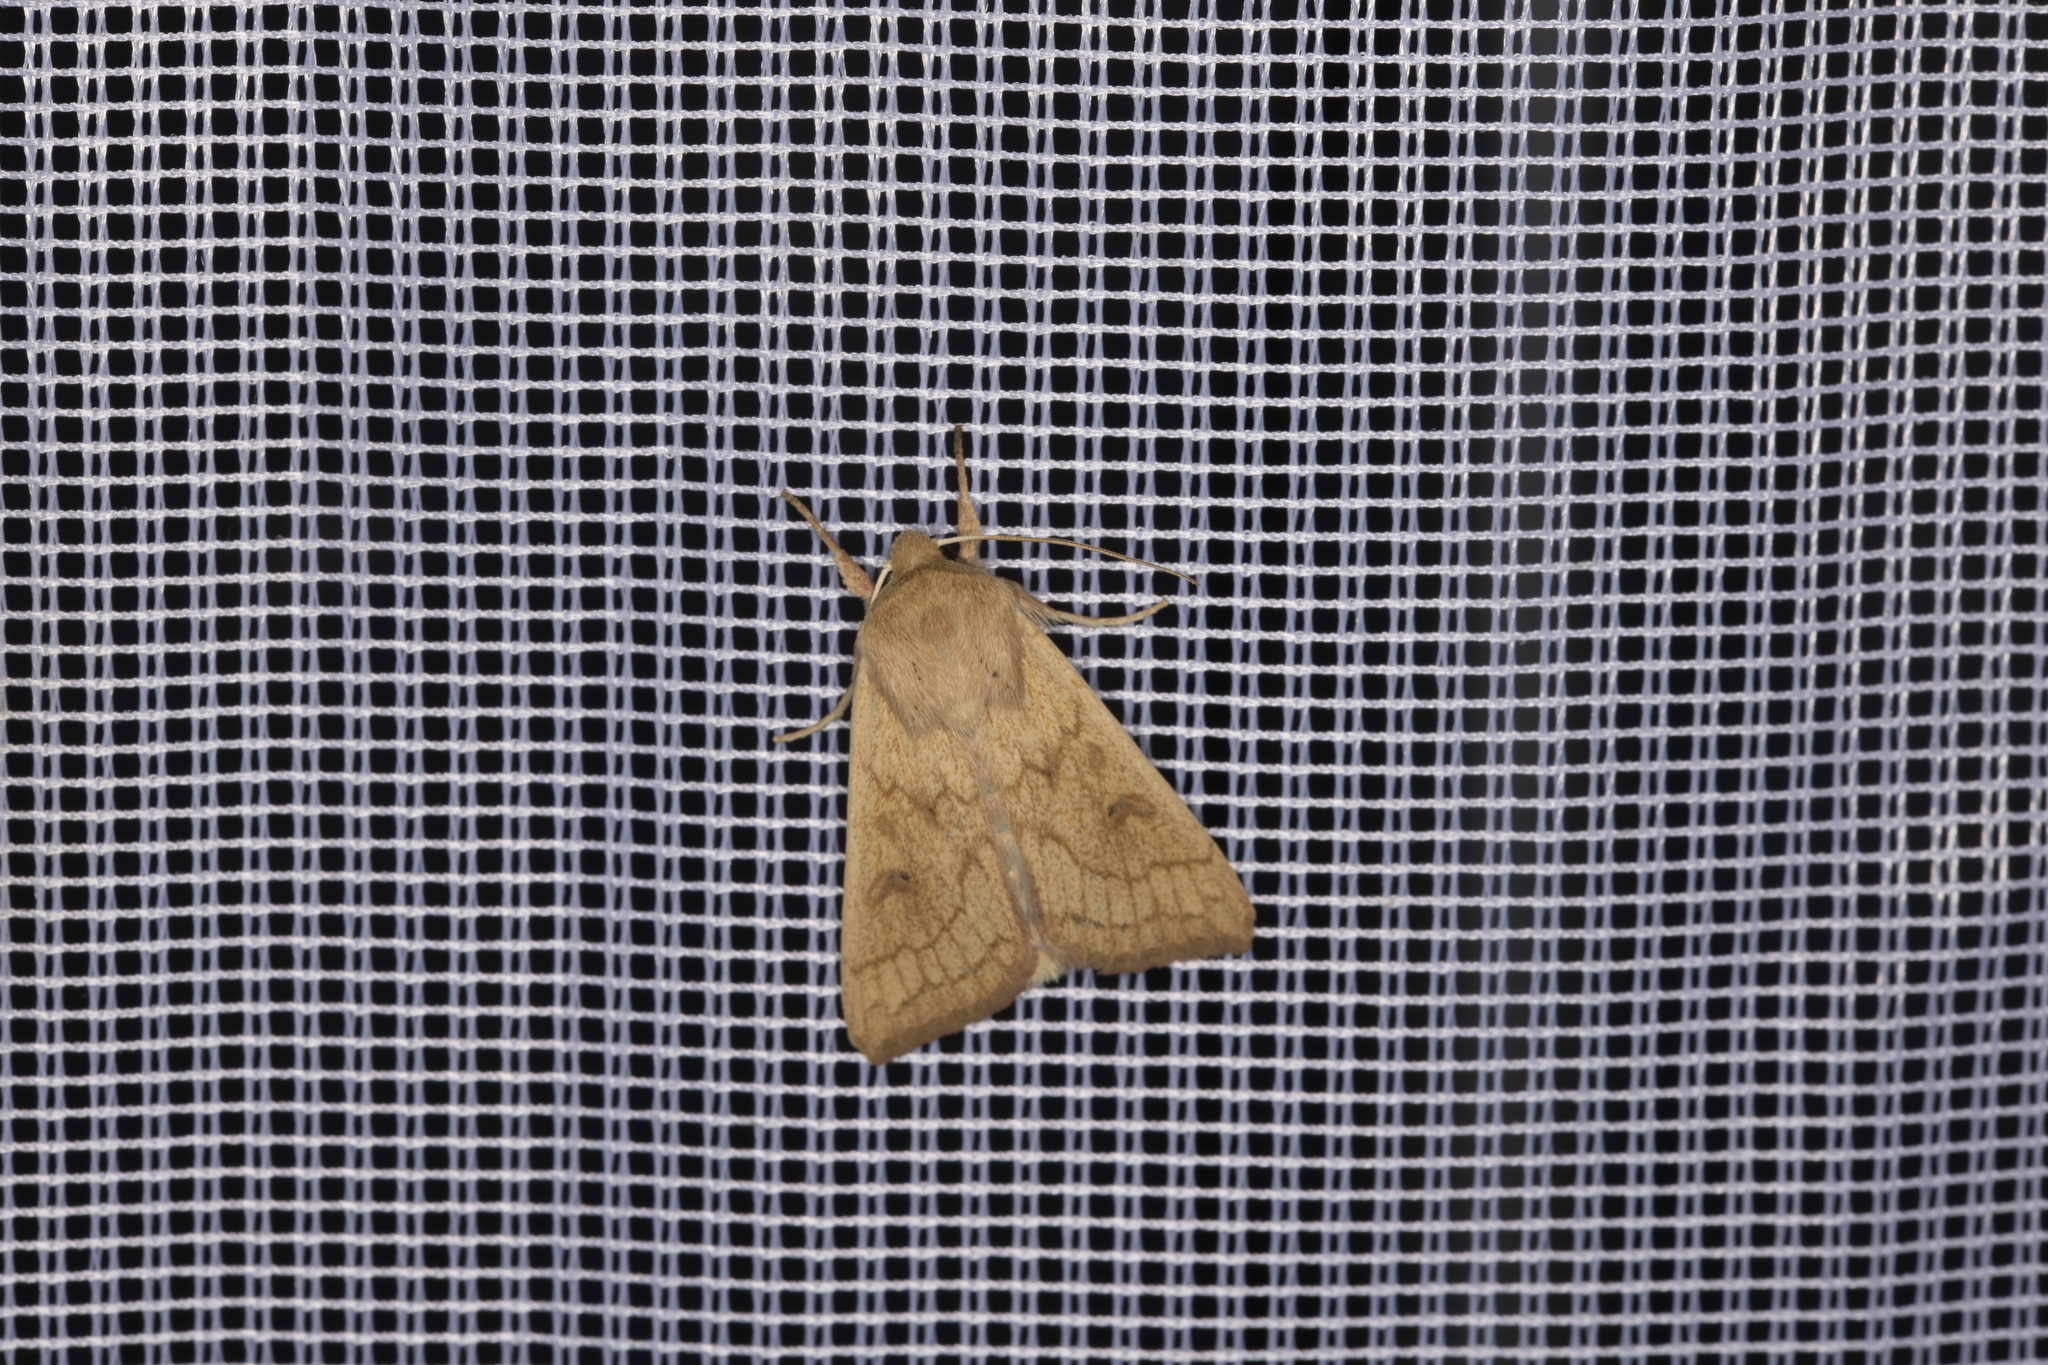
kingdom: Animalia
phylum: Arthropoda
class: Insecta
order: Lepidoptera
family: Noctuidae
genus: Mythimna
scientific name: Mythimna vitellina
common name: Delicate
